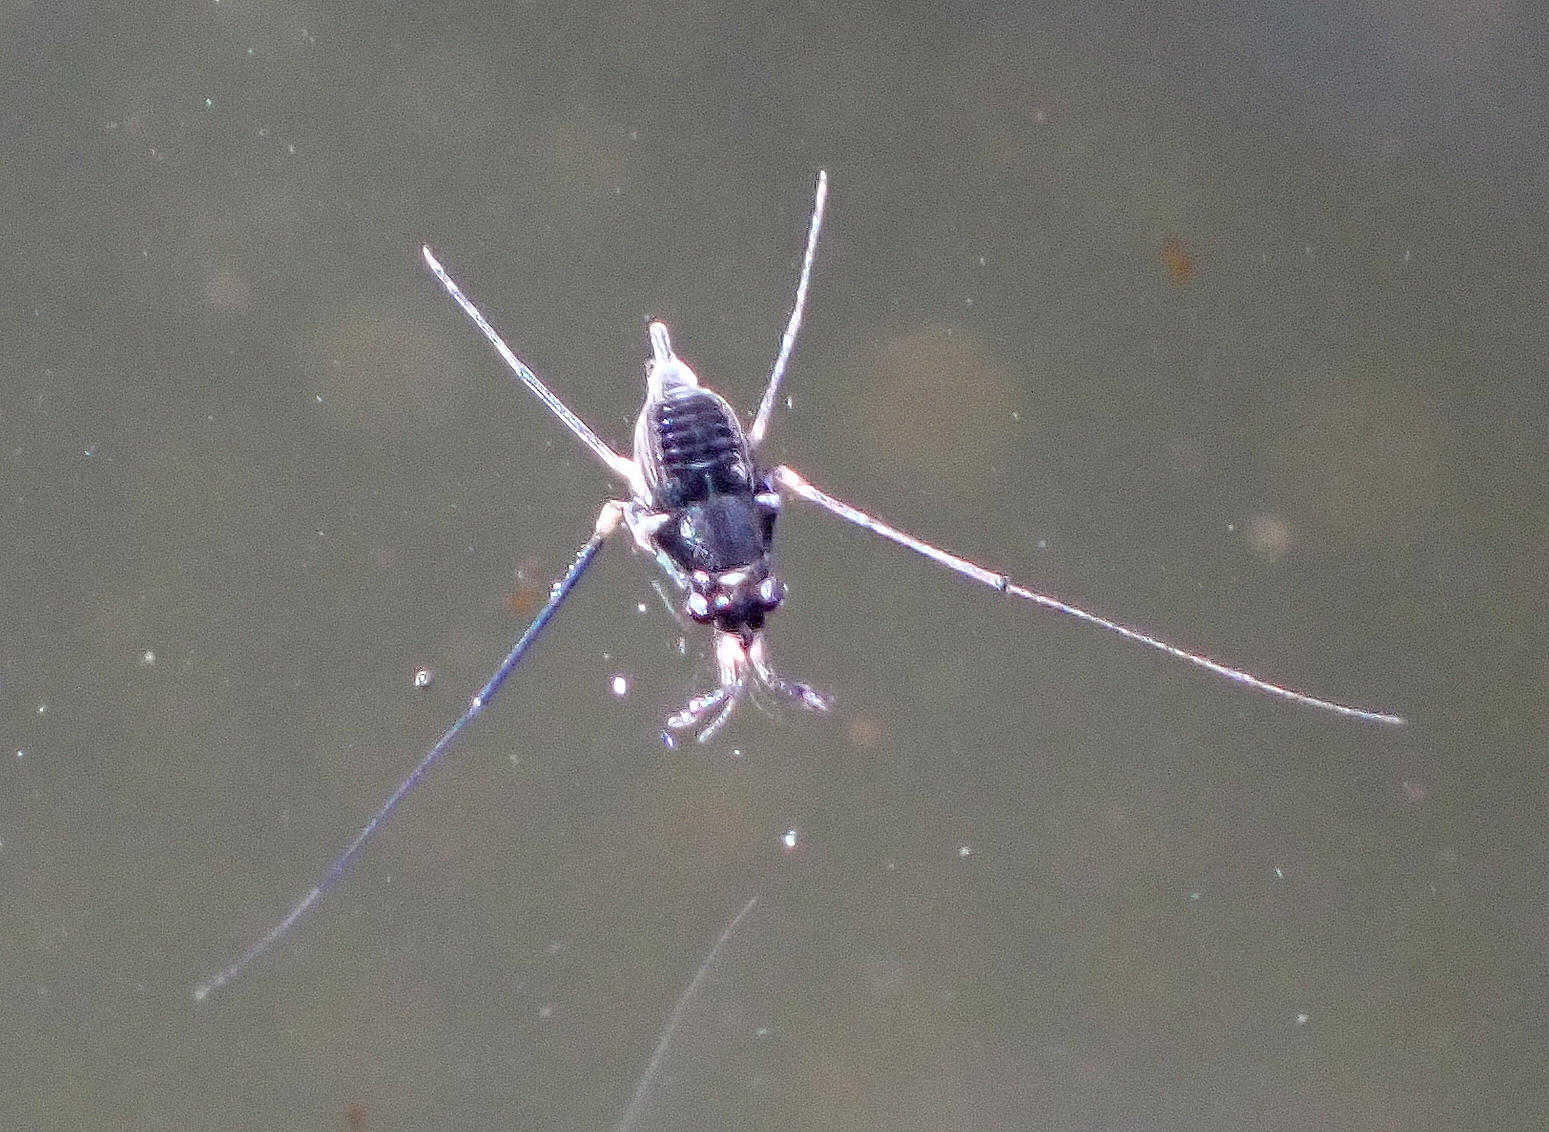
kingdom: Animalia
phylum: Arthropoda
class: Insecta
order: Hemiptera
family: Gerridae
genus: Rheumatobates
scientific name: Rheumatobates
